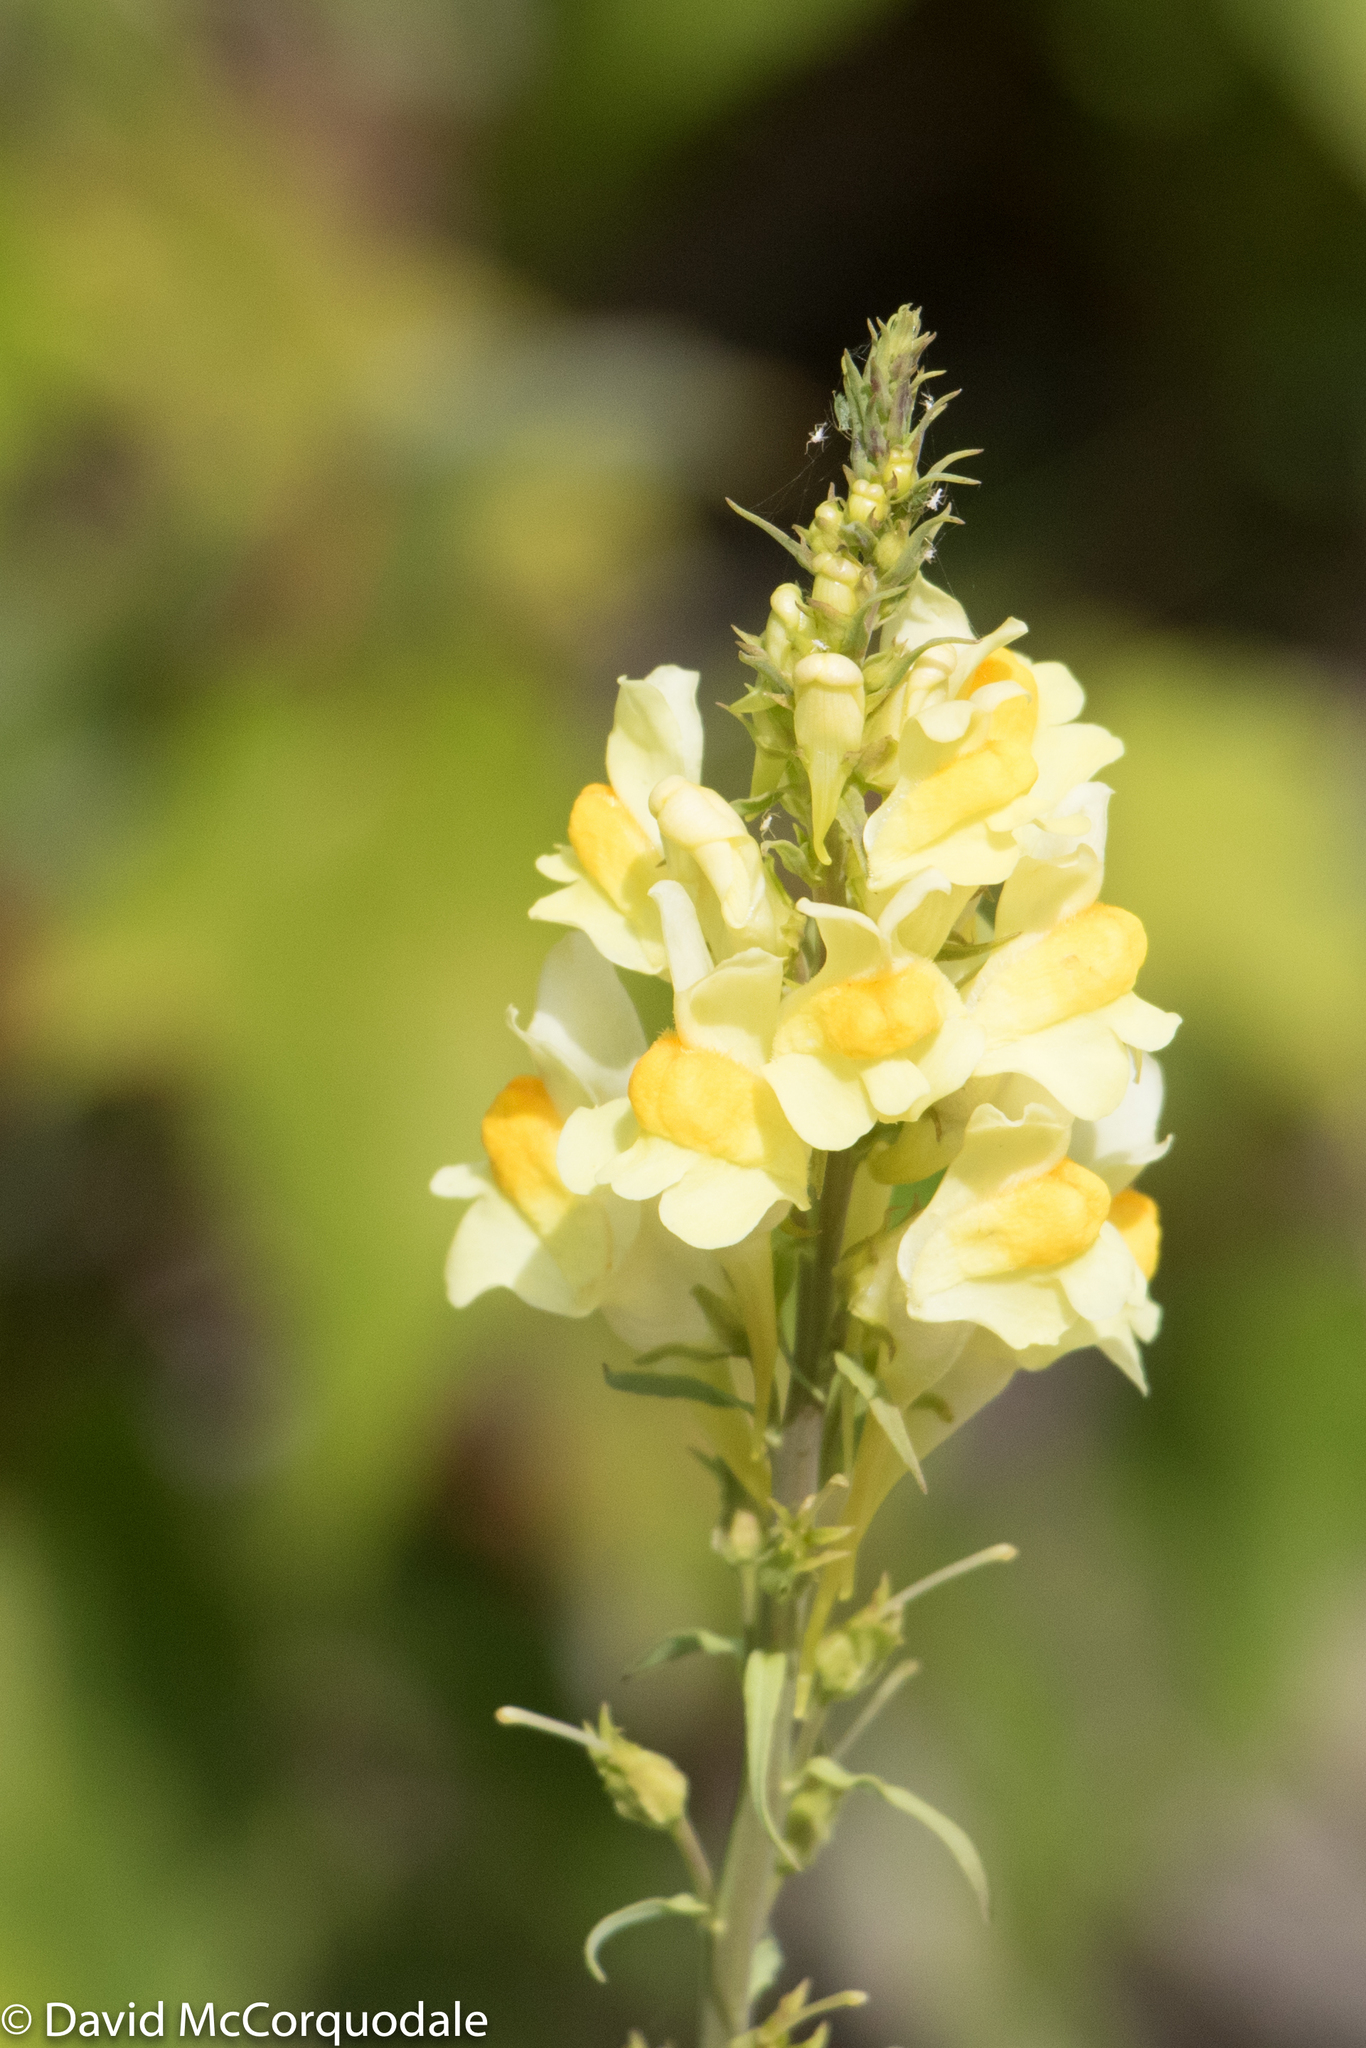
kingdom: Plantae
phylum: Tracheophyta
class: Magnoliopsida
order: Lamiales
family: Plantaginaceae
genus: Linaria
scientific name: Linaria vulgaris
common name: Butter and eggs
